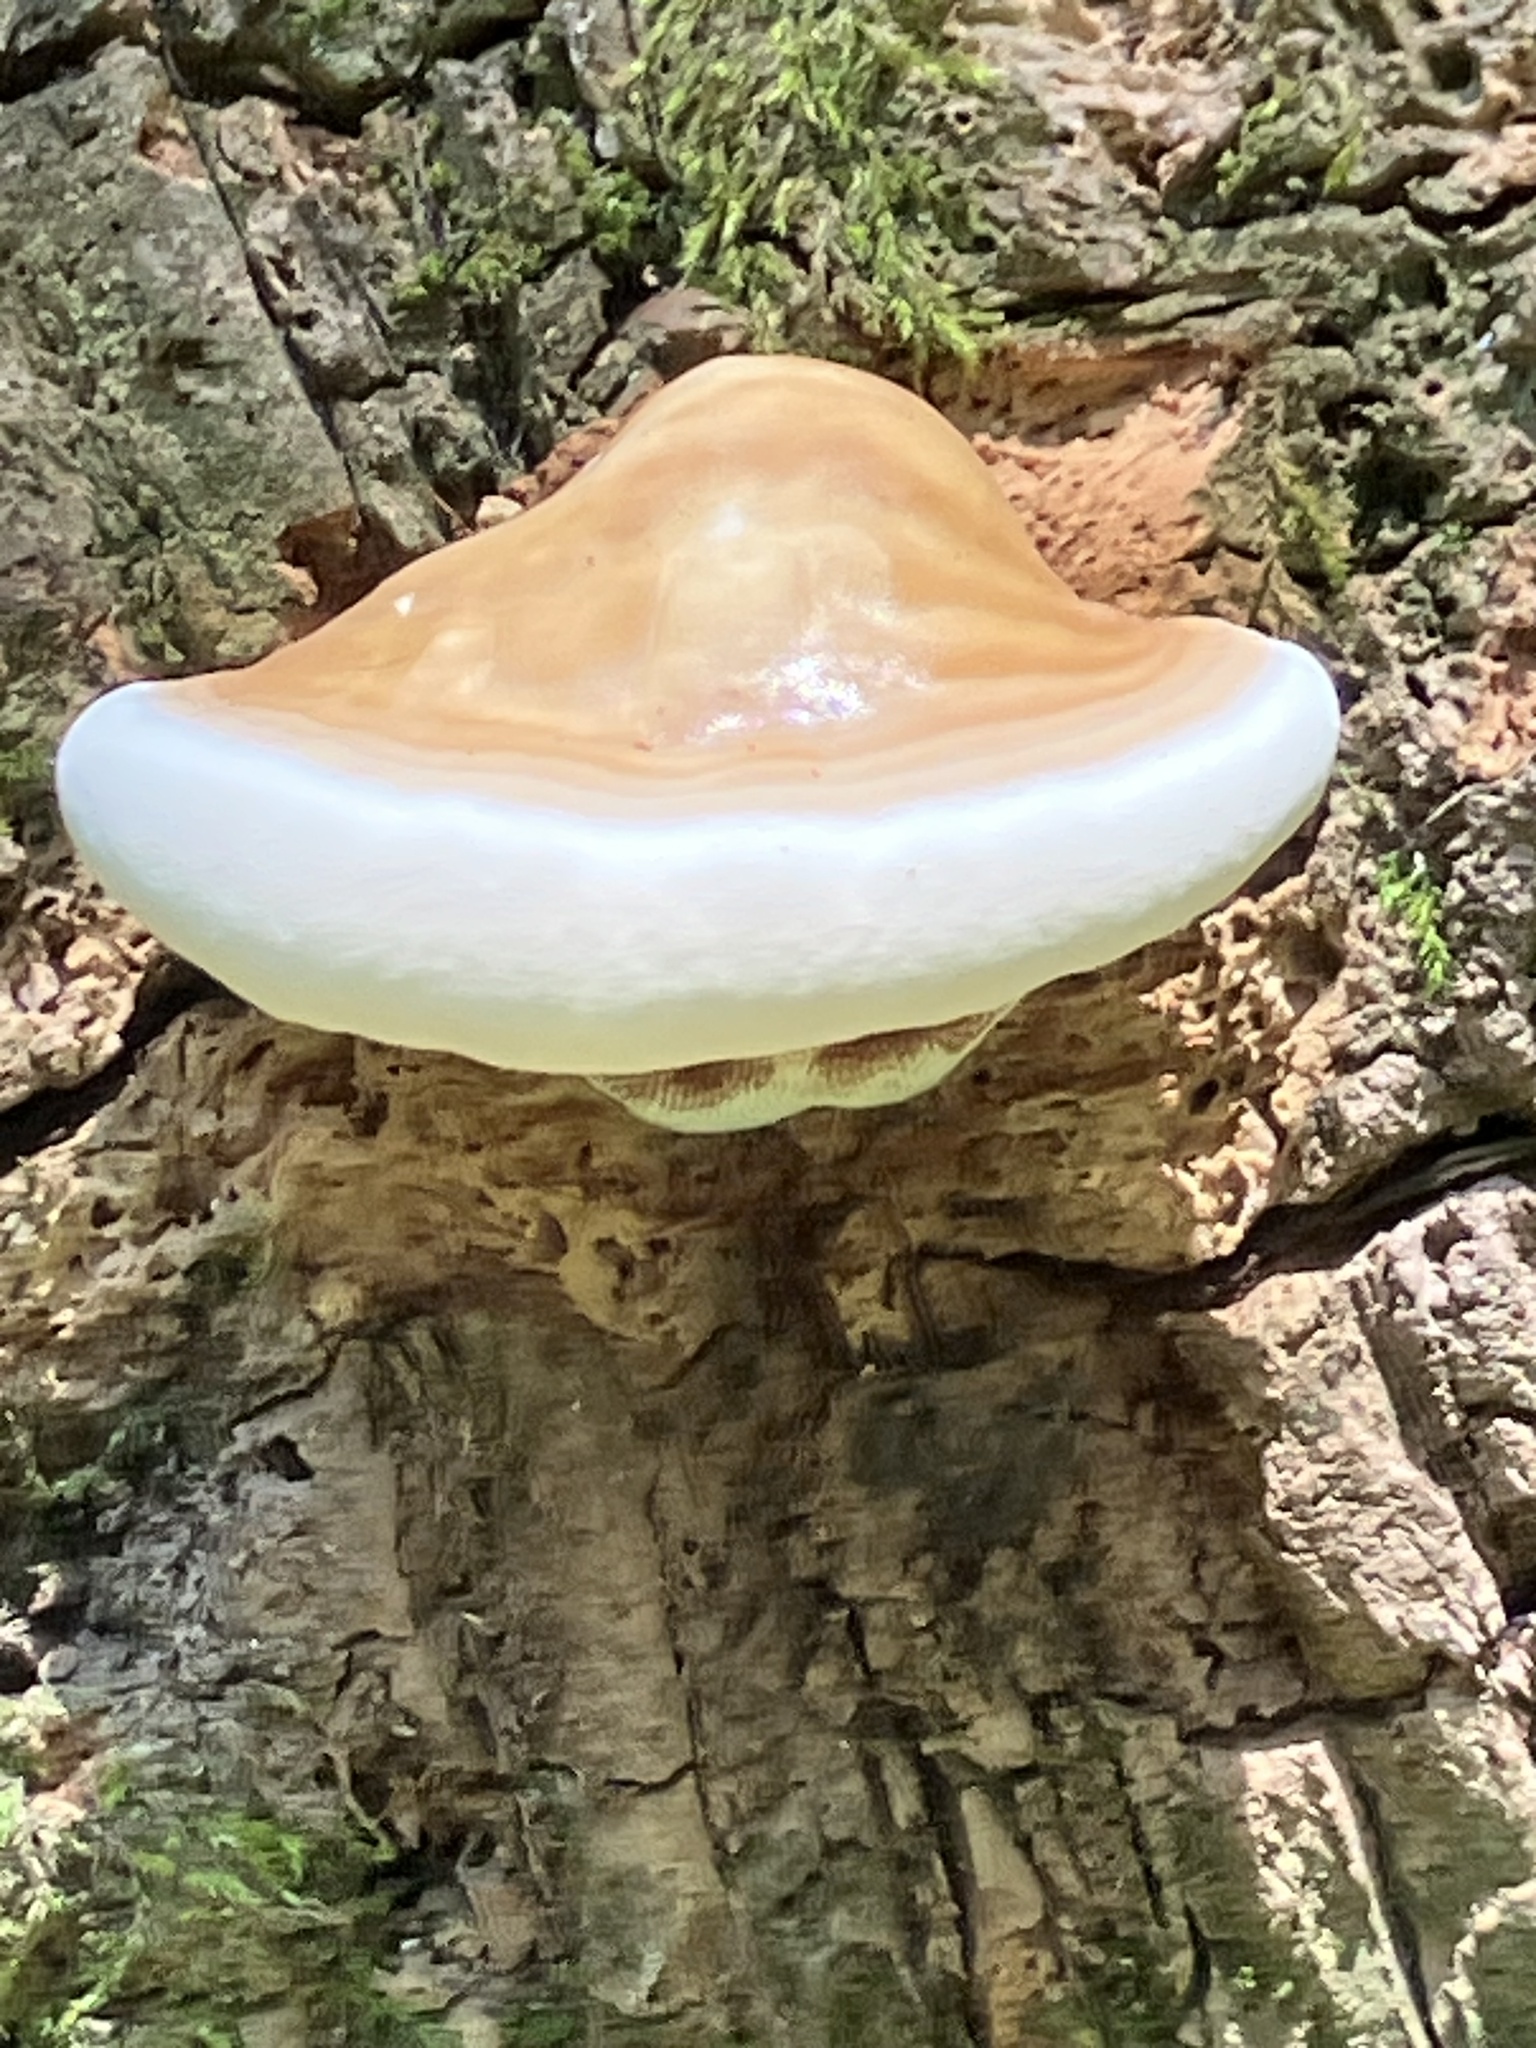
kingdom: Fungi
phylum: Basidiomycota
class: Agaricomycetes
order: Polyporales
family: Polyporaceae
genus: Ganoderma
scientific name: Ganoderma zonatum
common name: Ganoderma butt rot
